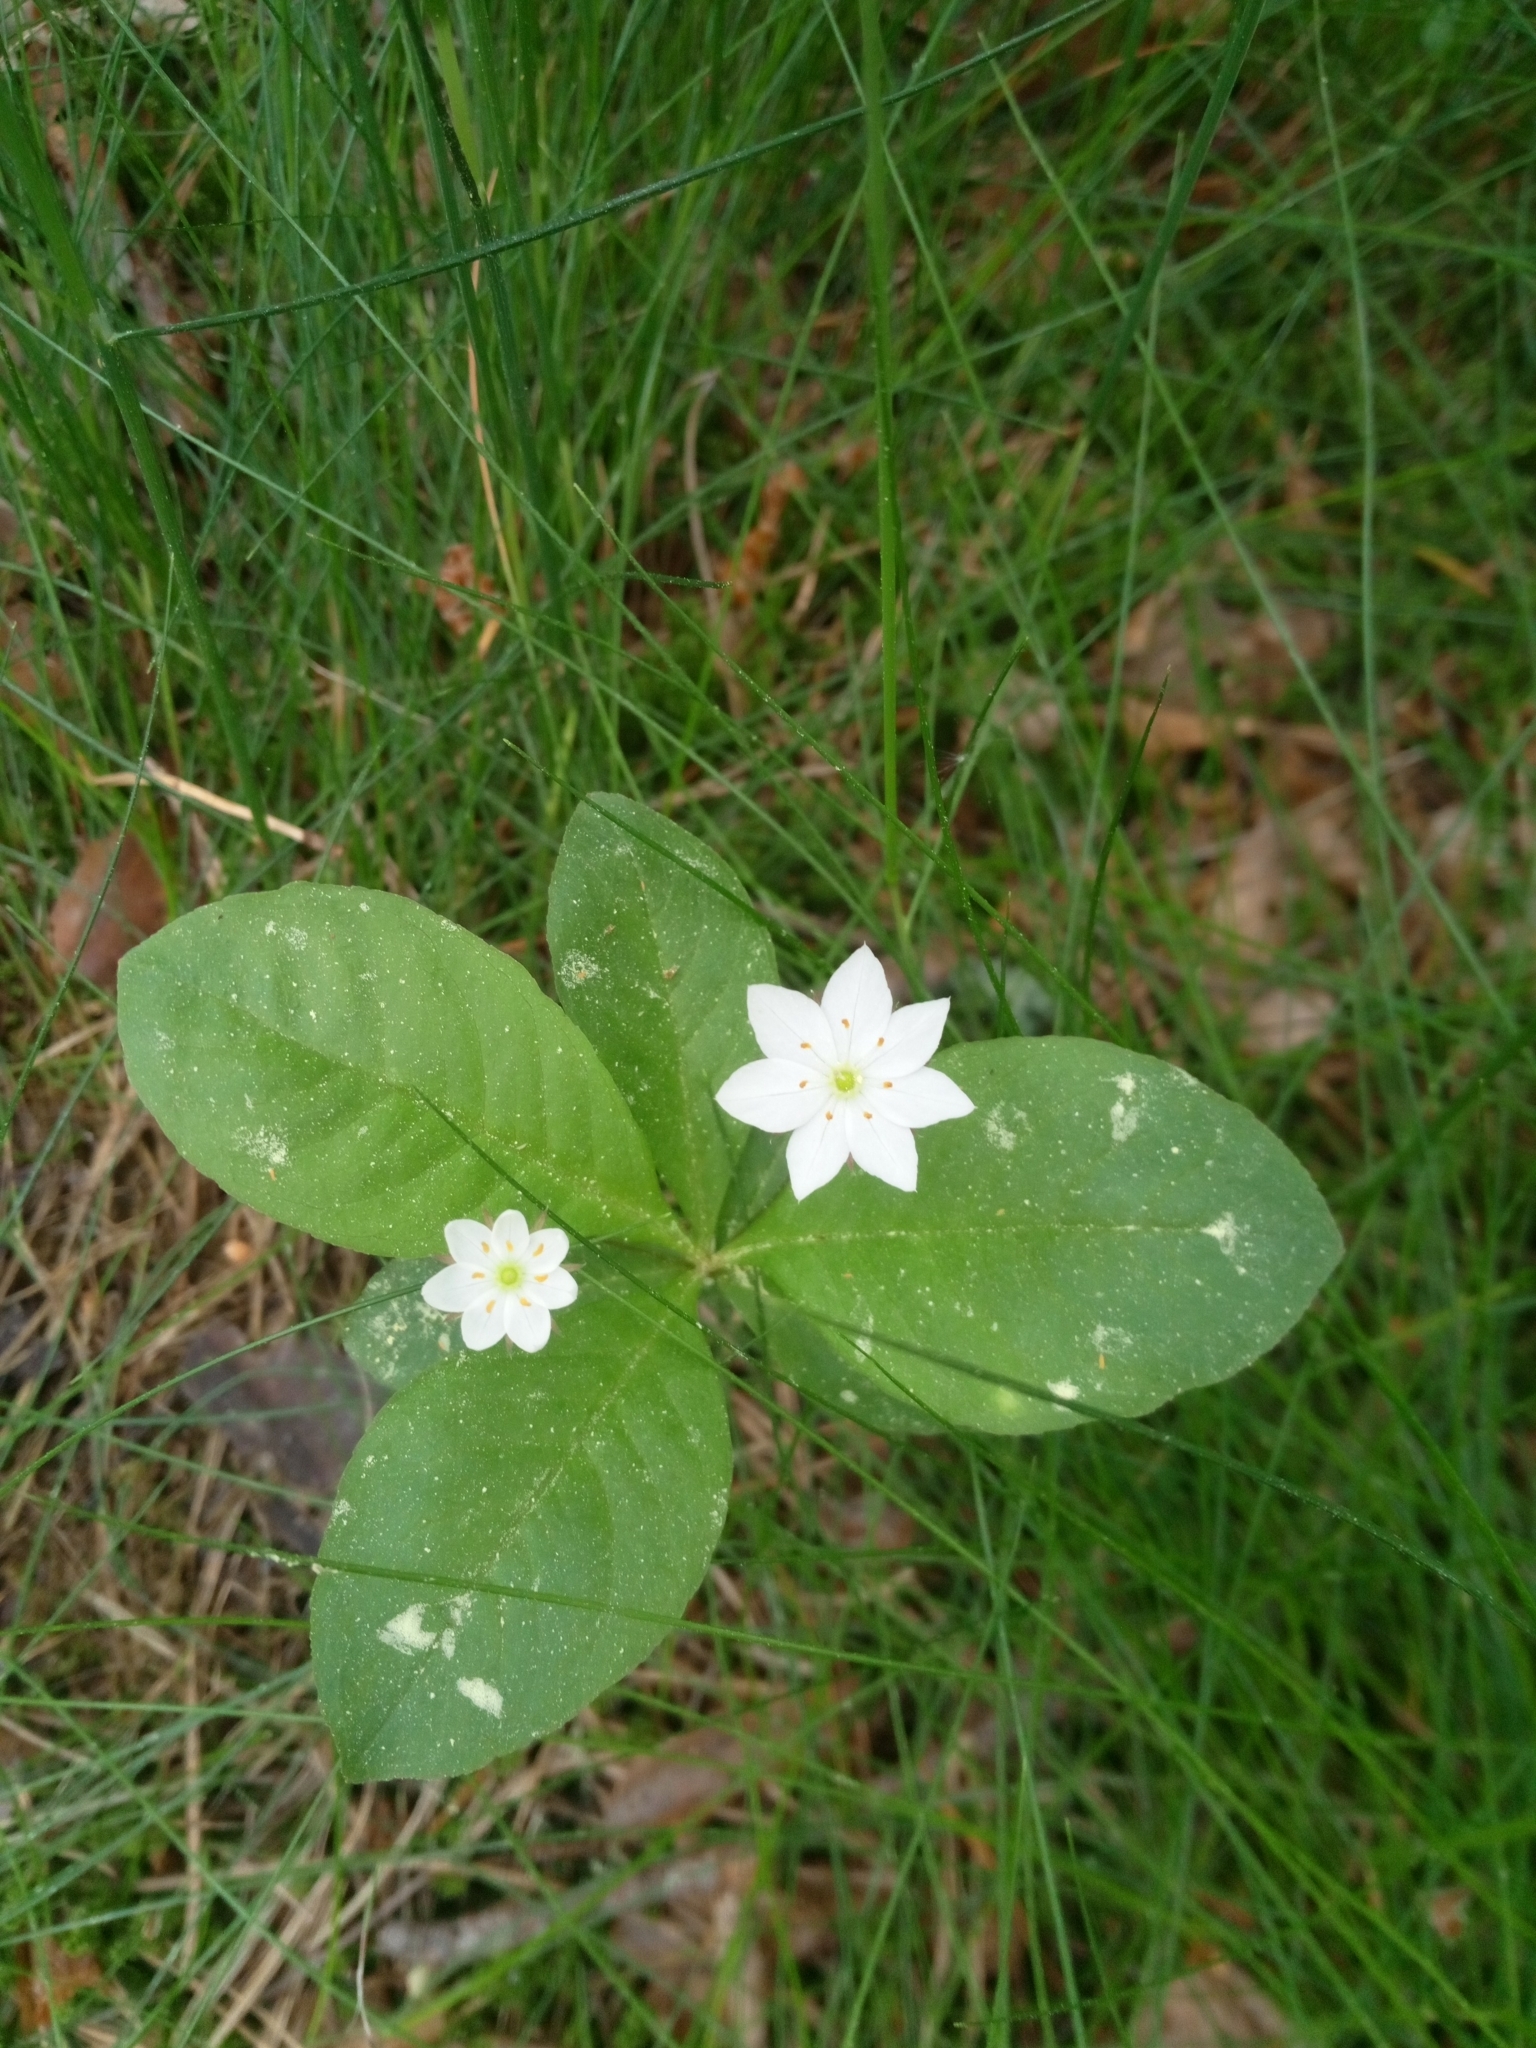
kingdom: Plantae
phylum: Tracheophyta
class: Magnoliopsida
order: Ericales
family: Primulaceae
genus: Lysimachia
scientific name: Lysimachia europaea
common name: Arctic starflower
